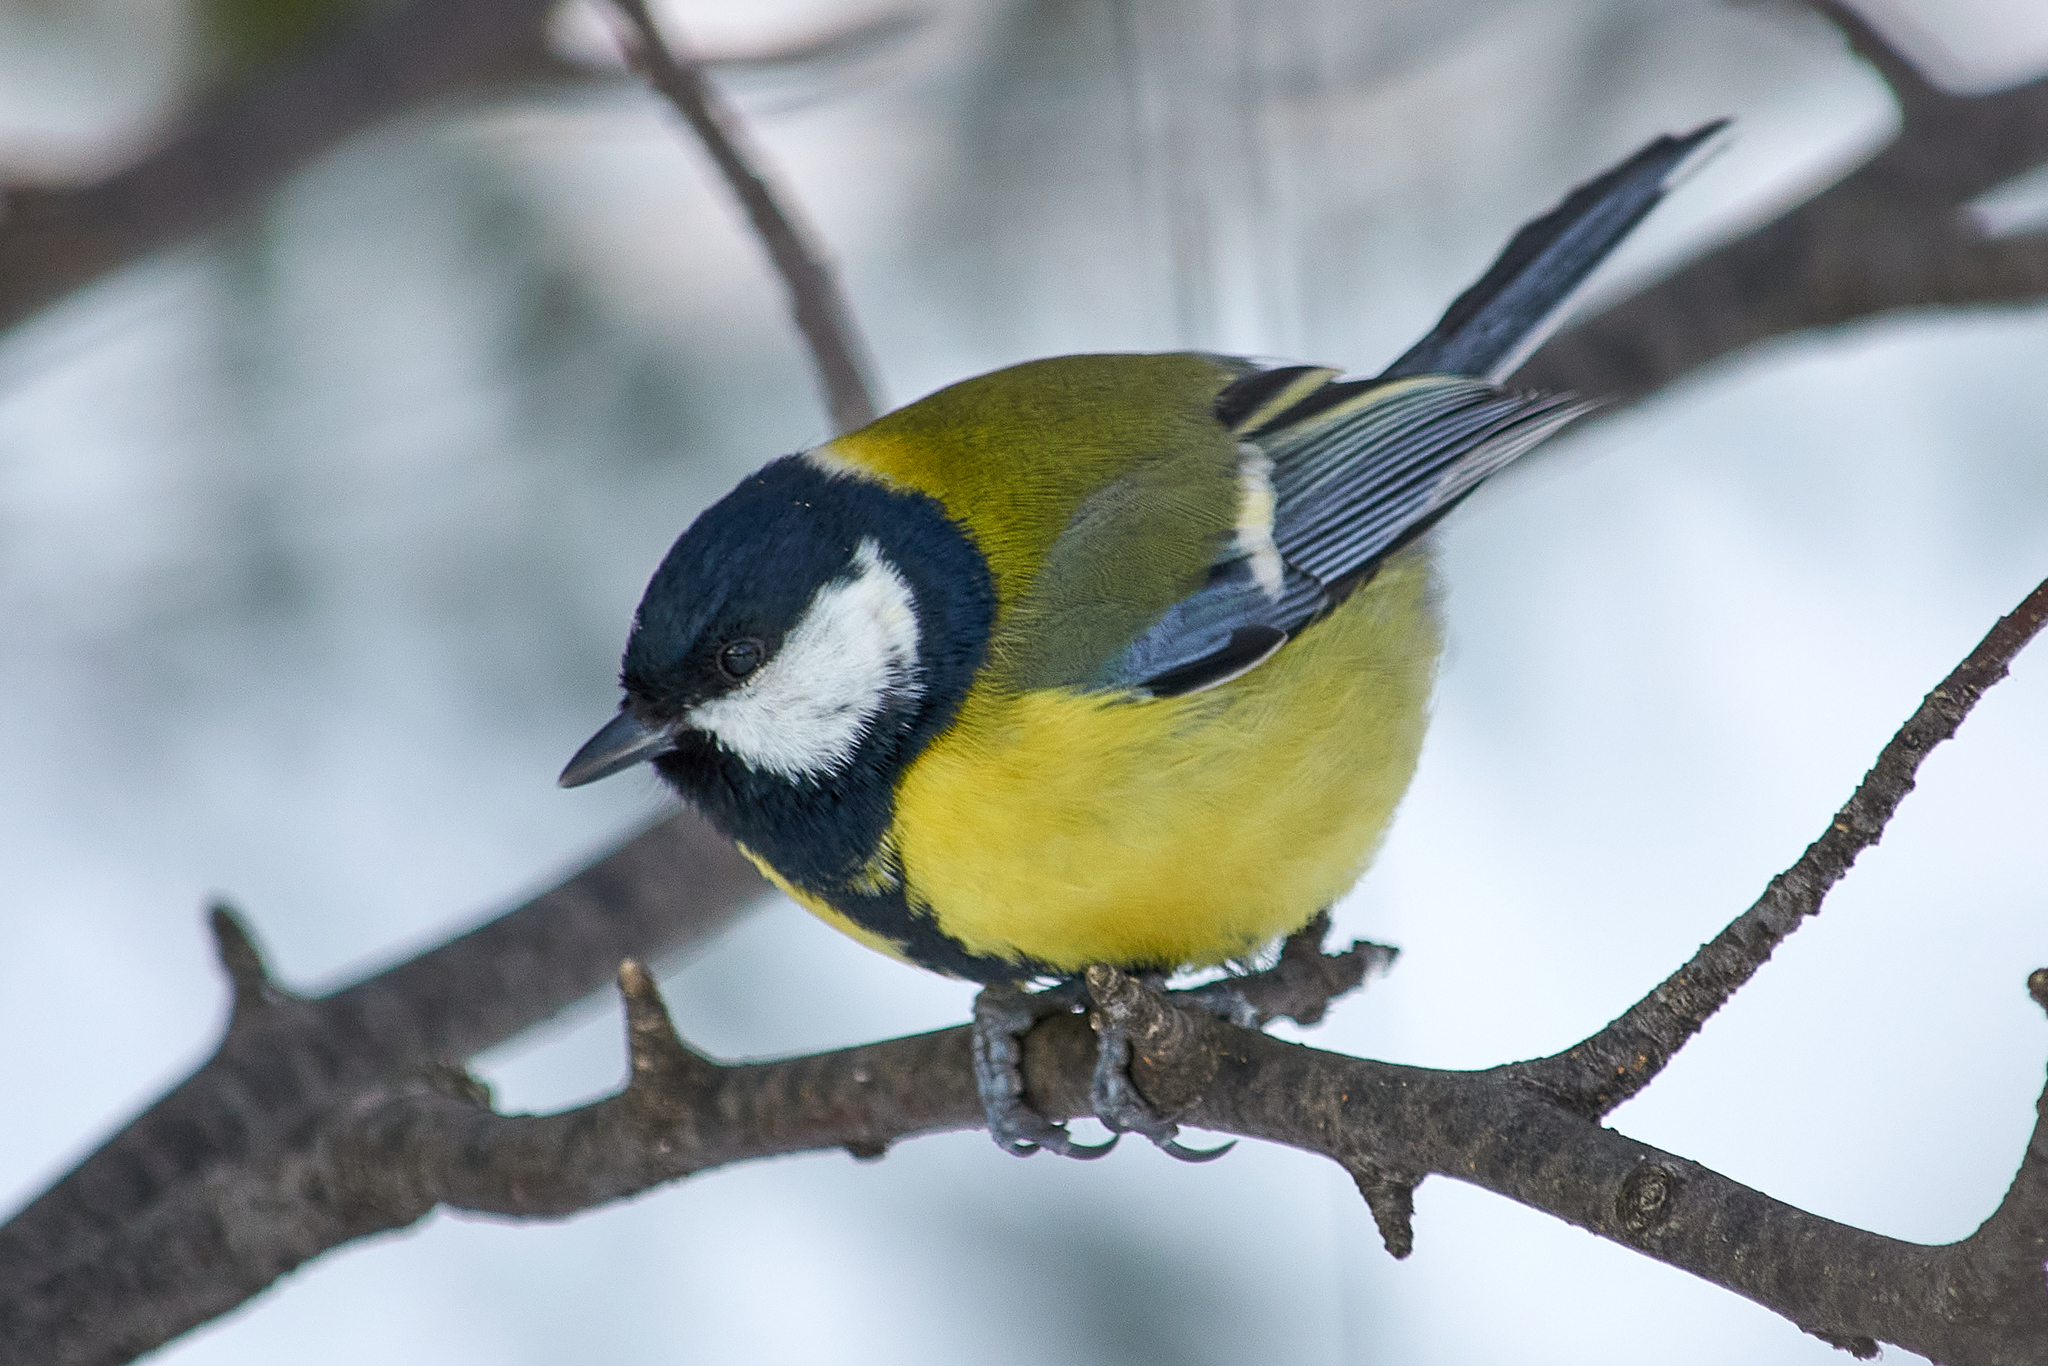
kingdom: Animalia
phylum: Chordata
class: Aves
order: Passeriformes
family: Paridae
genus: Parus
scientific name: Parus major
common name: Great tit
